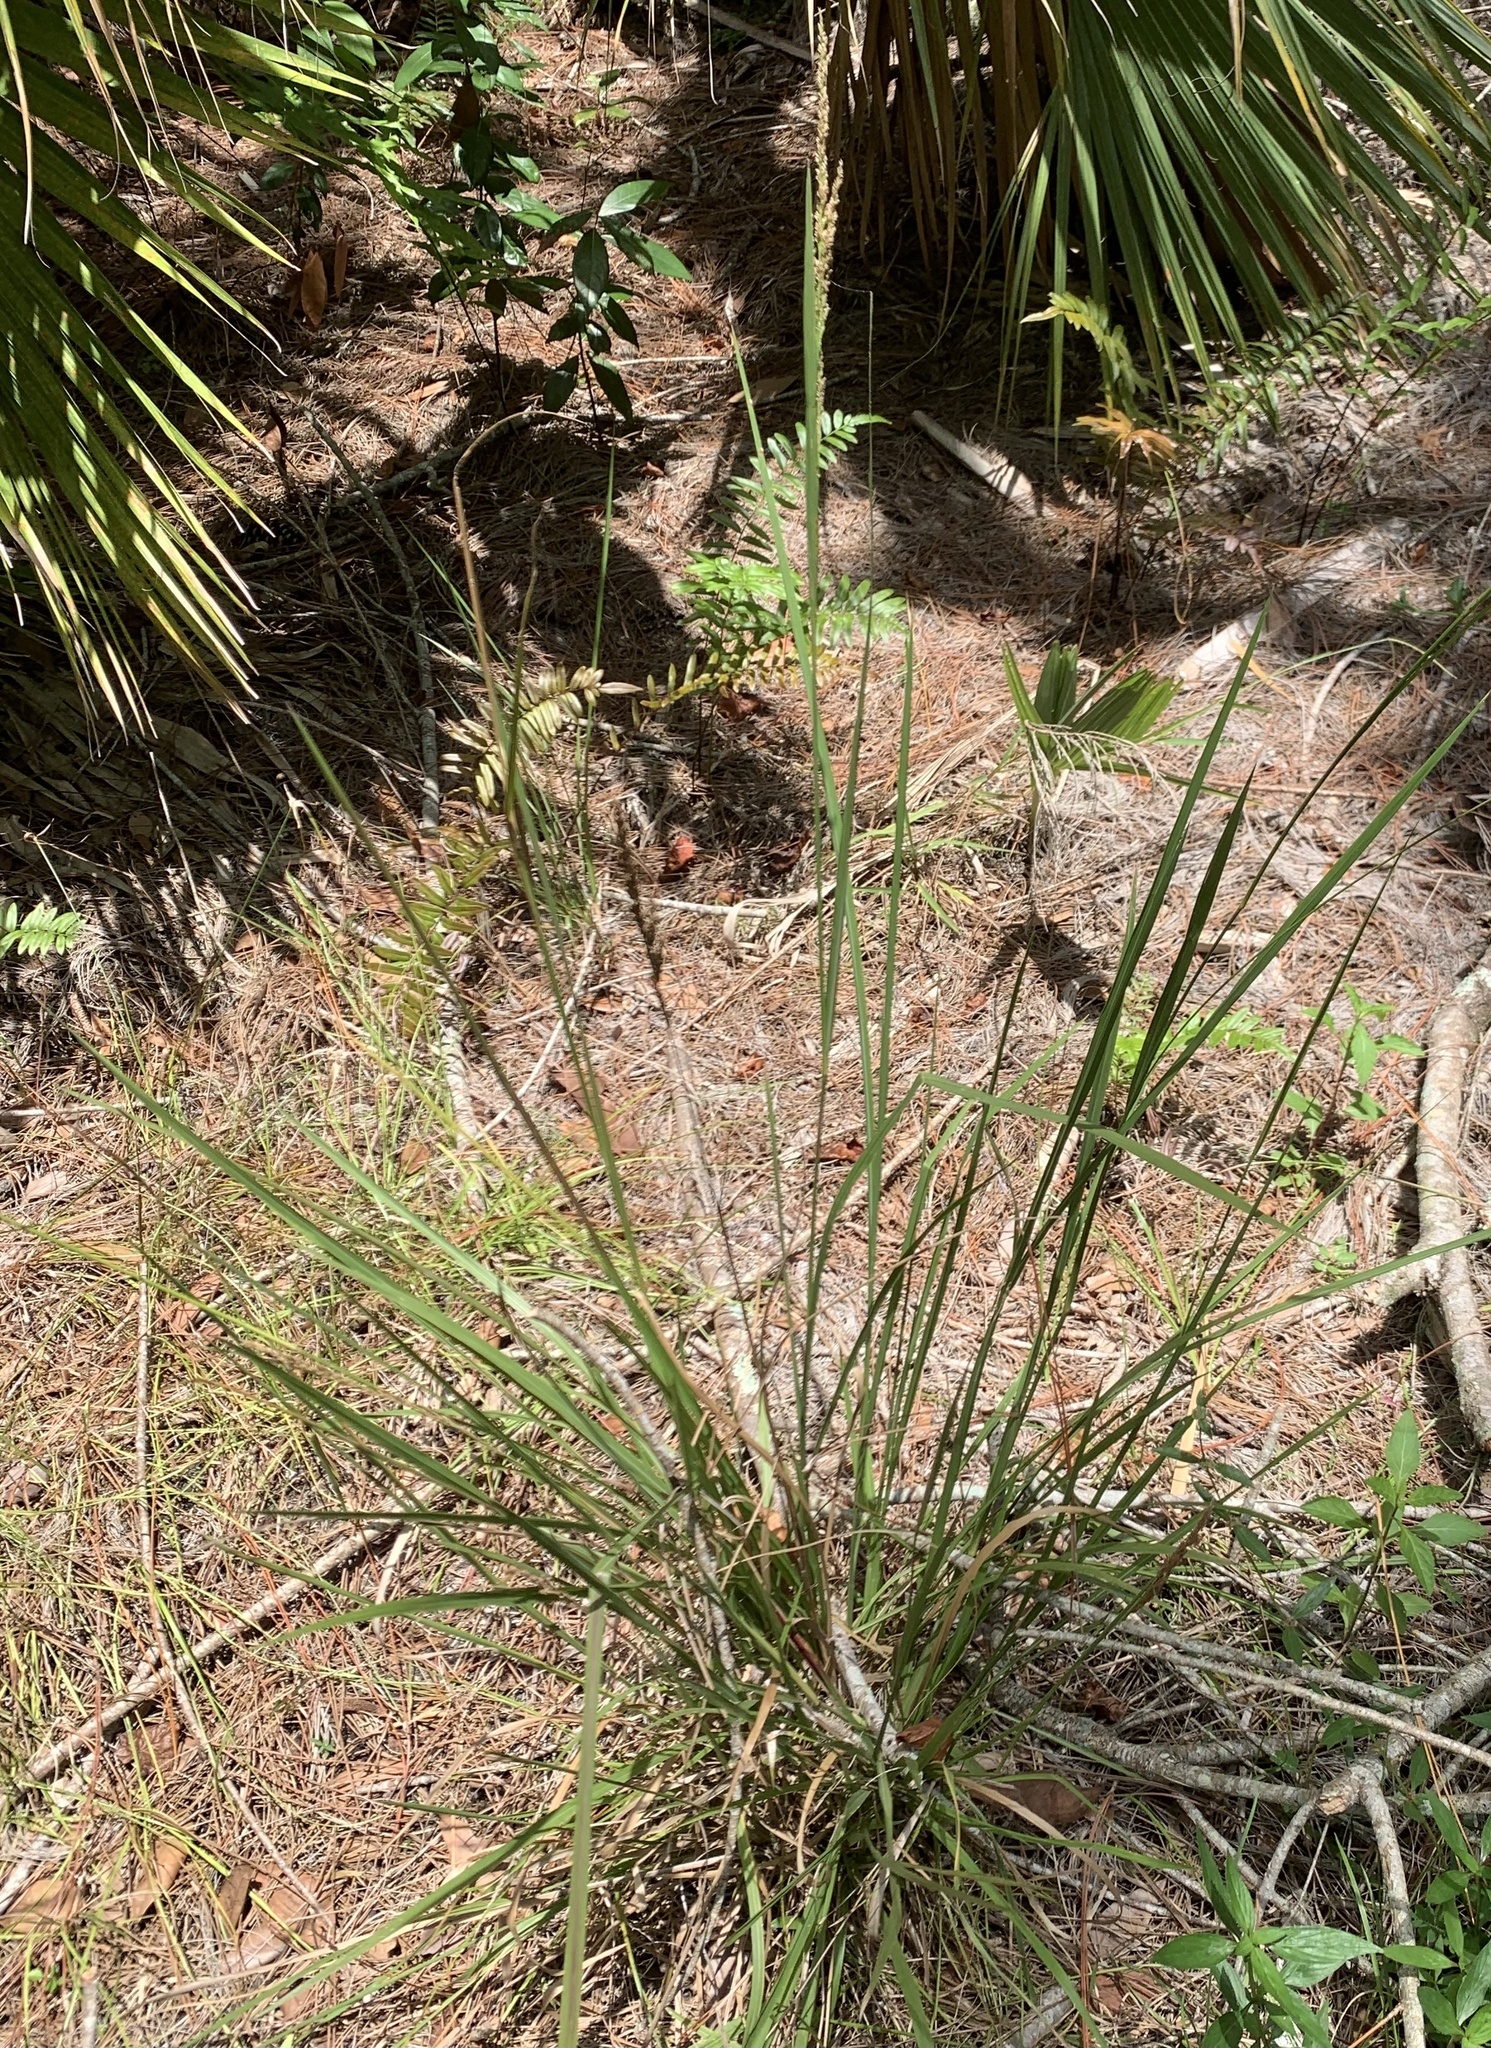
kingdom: Plantae
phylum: Tracheophyta
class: Liliopsida
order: Poales
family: Poaceae
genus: Coleataenia
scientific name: Coleataenia rigidula
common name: Redtop panicgrass
